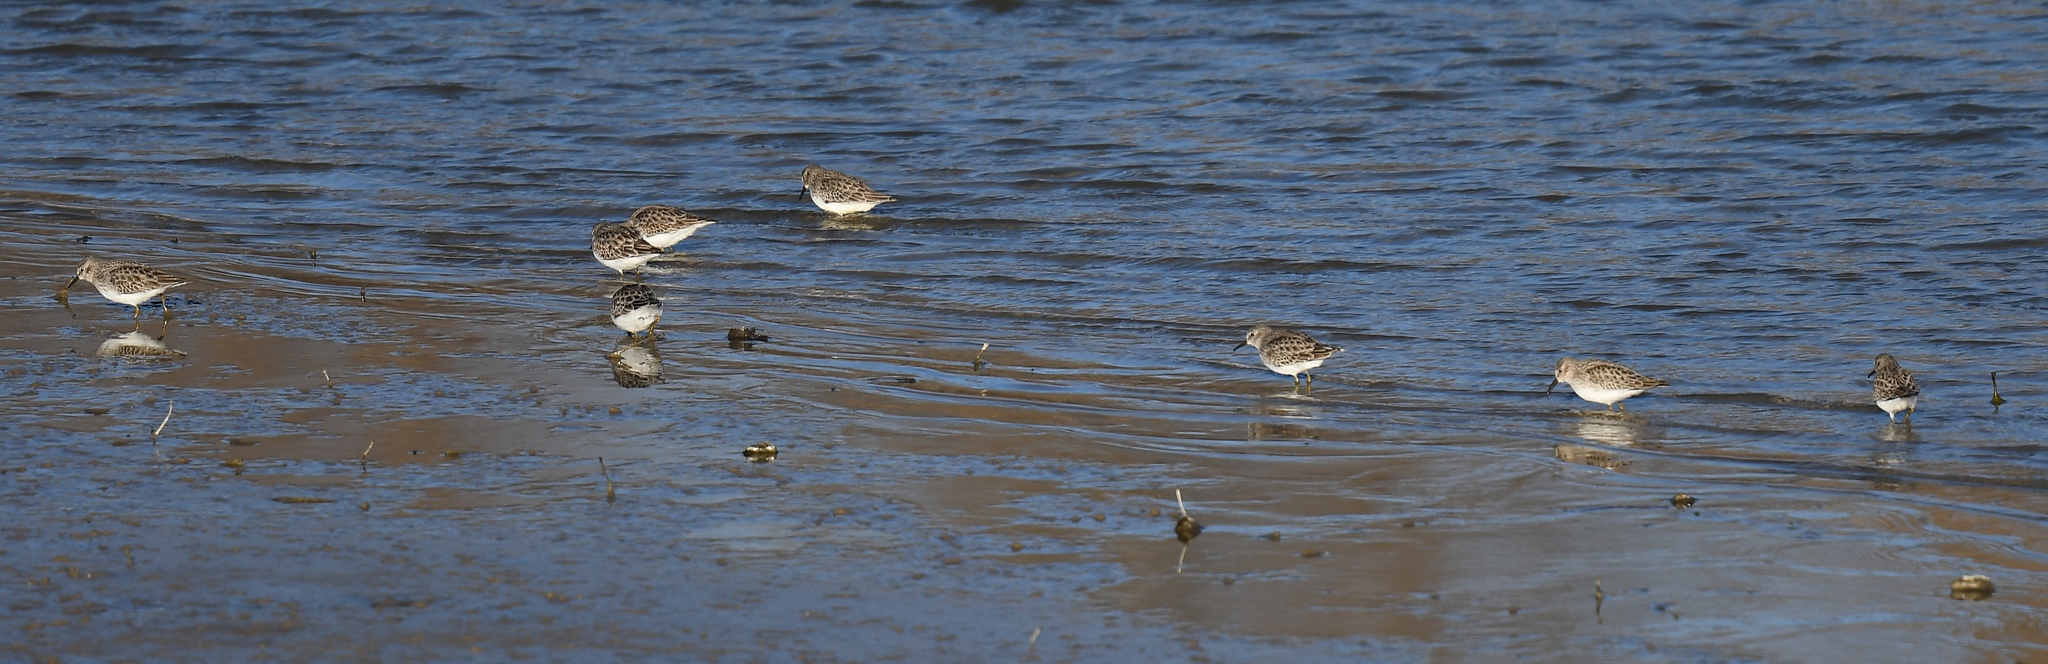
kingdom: Animalia
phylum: Chordata
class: Aves
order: Charadriiformes
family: Scolopacidae
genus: Calidris
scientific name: Calidris minutilla
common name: Least sandpiper
